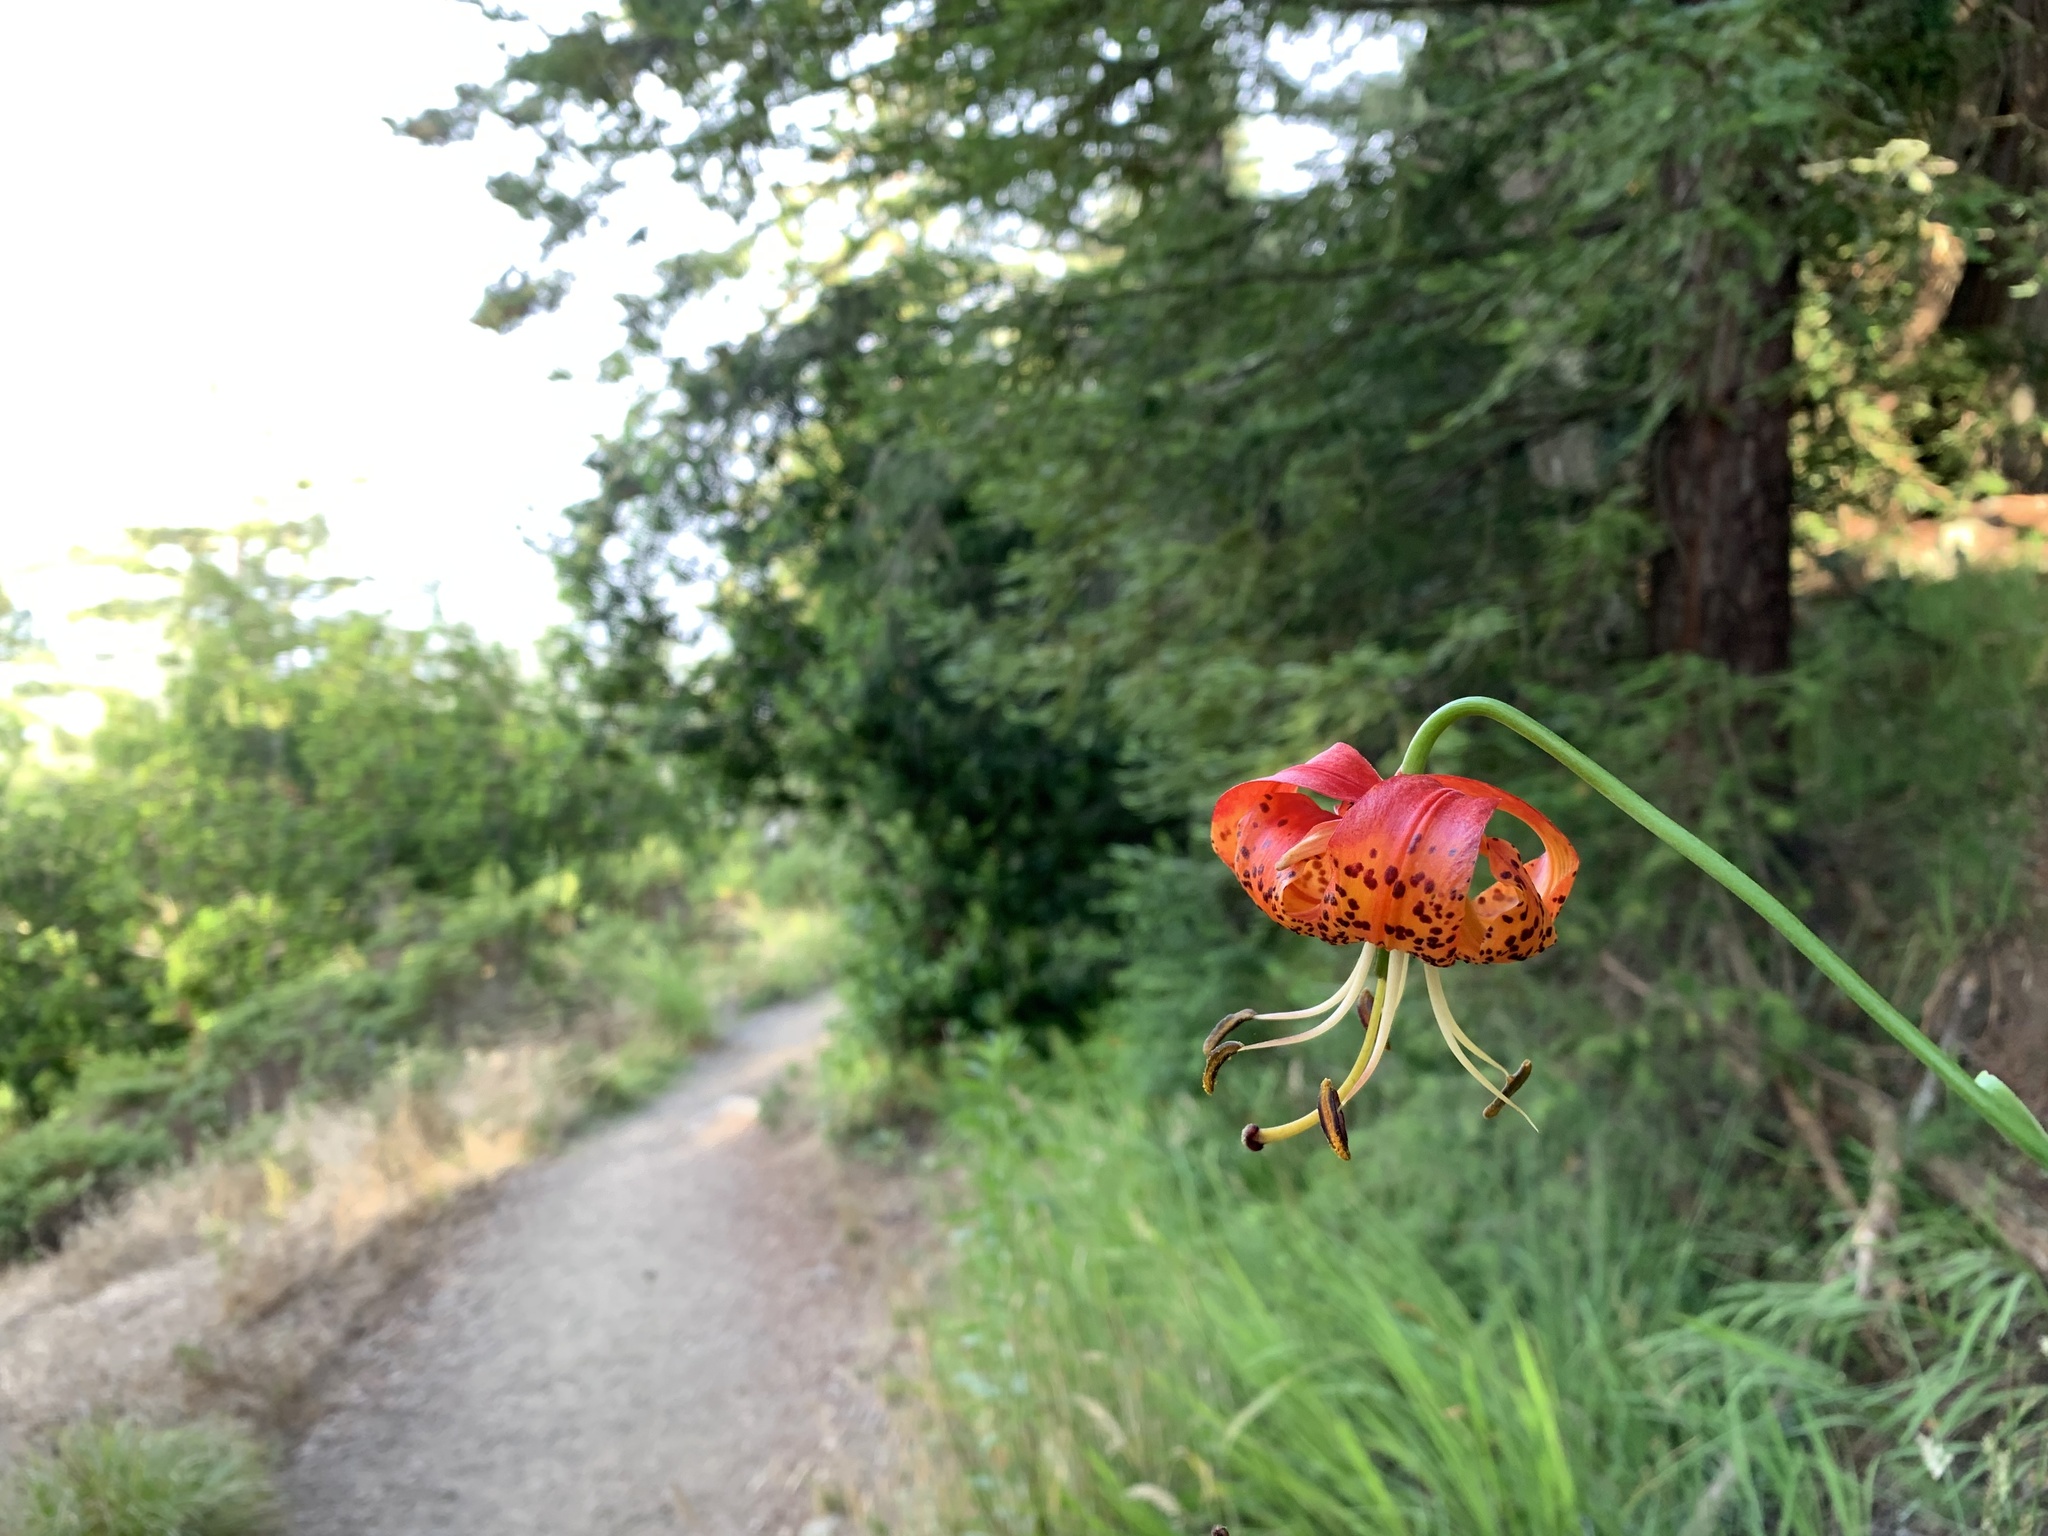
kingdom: Plantae
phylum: Tracheophyta
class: Liliopsida
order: Liliales
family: Liliaceae
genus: Lilium
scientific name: Lilium pardalinum
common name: Panther lily
